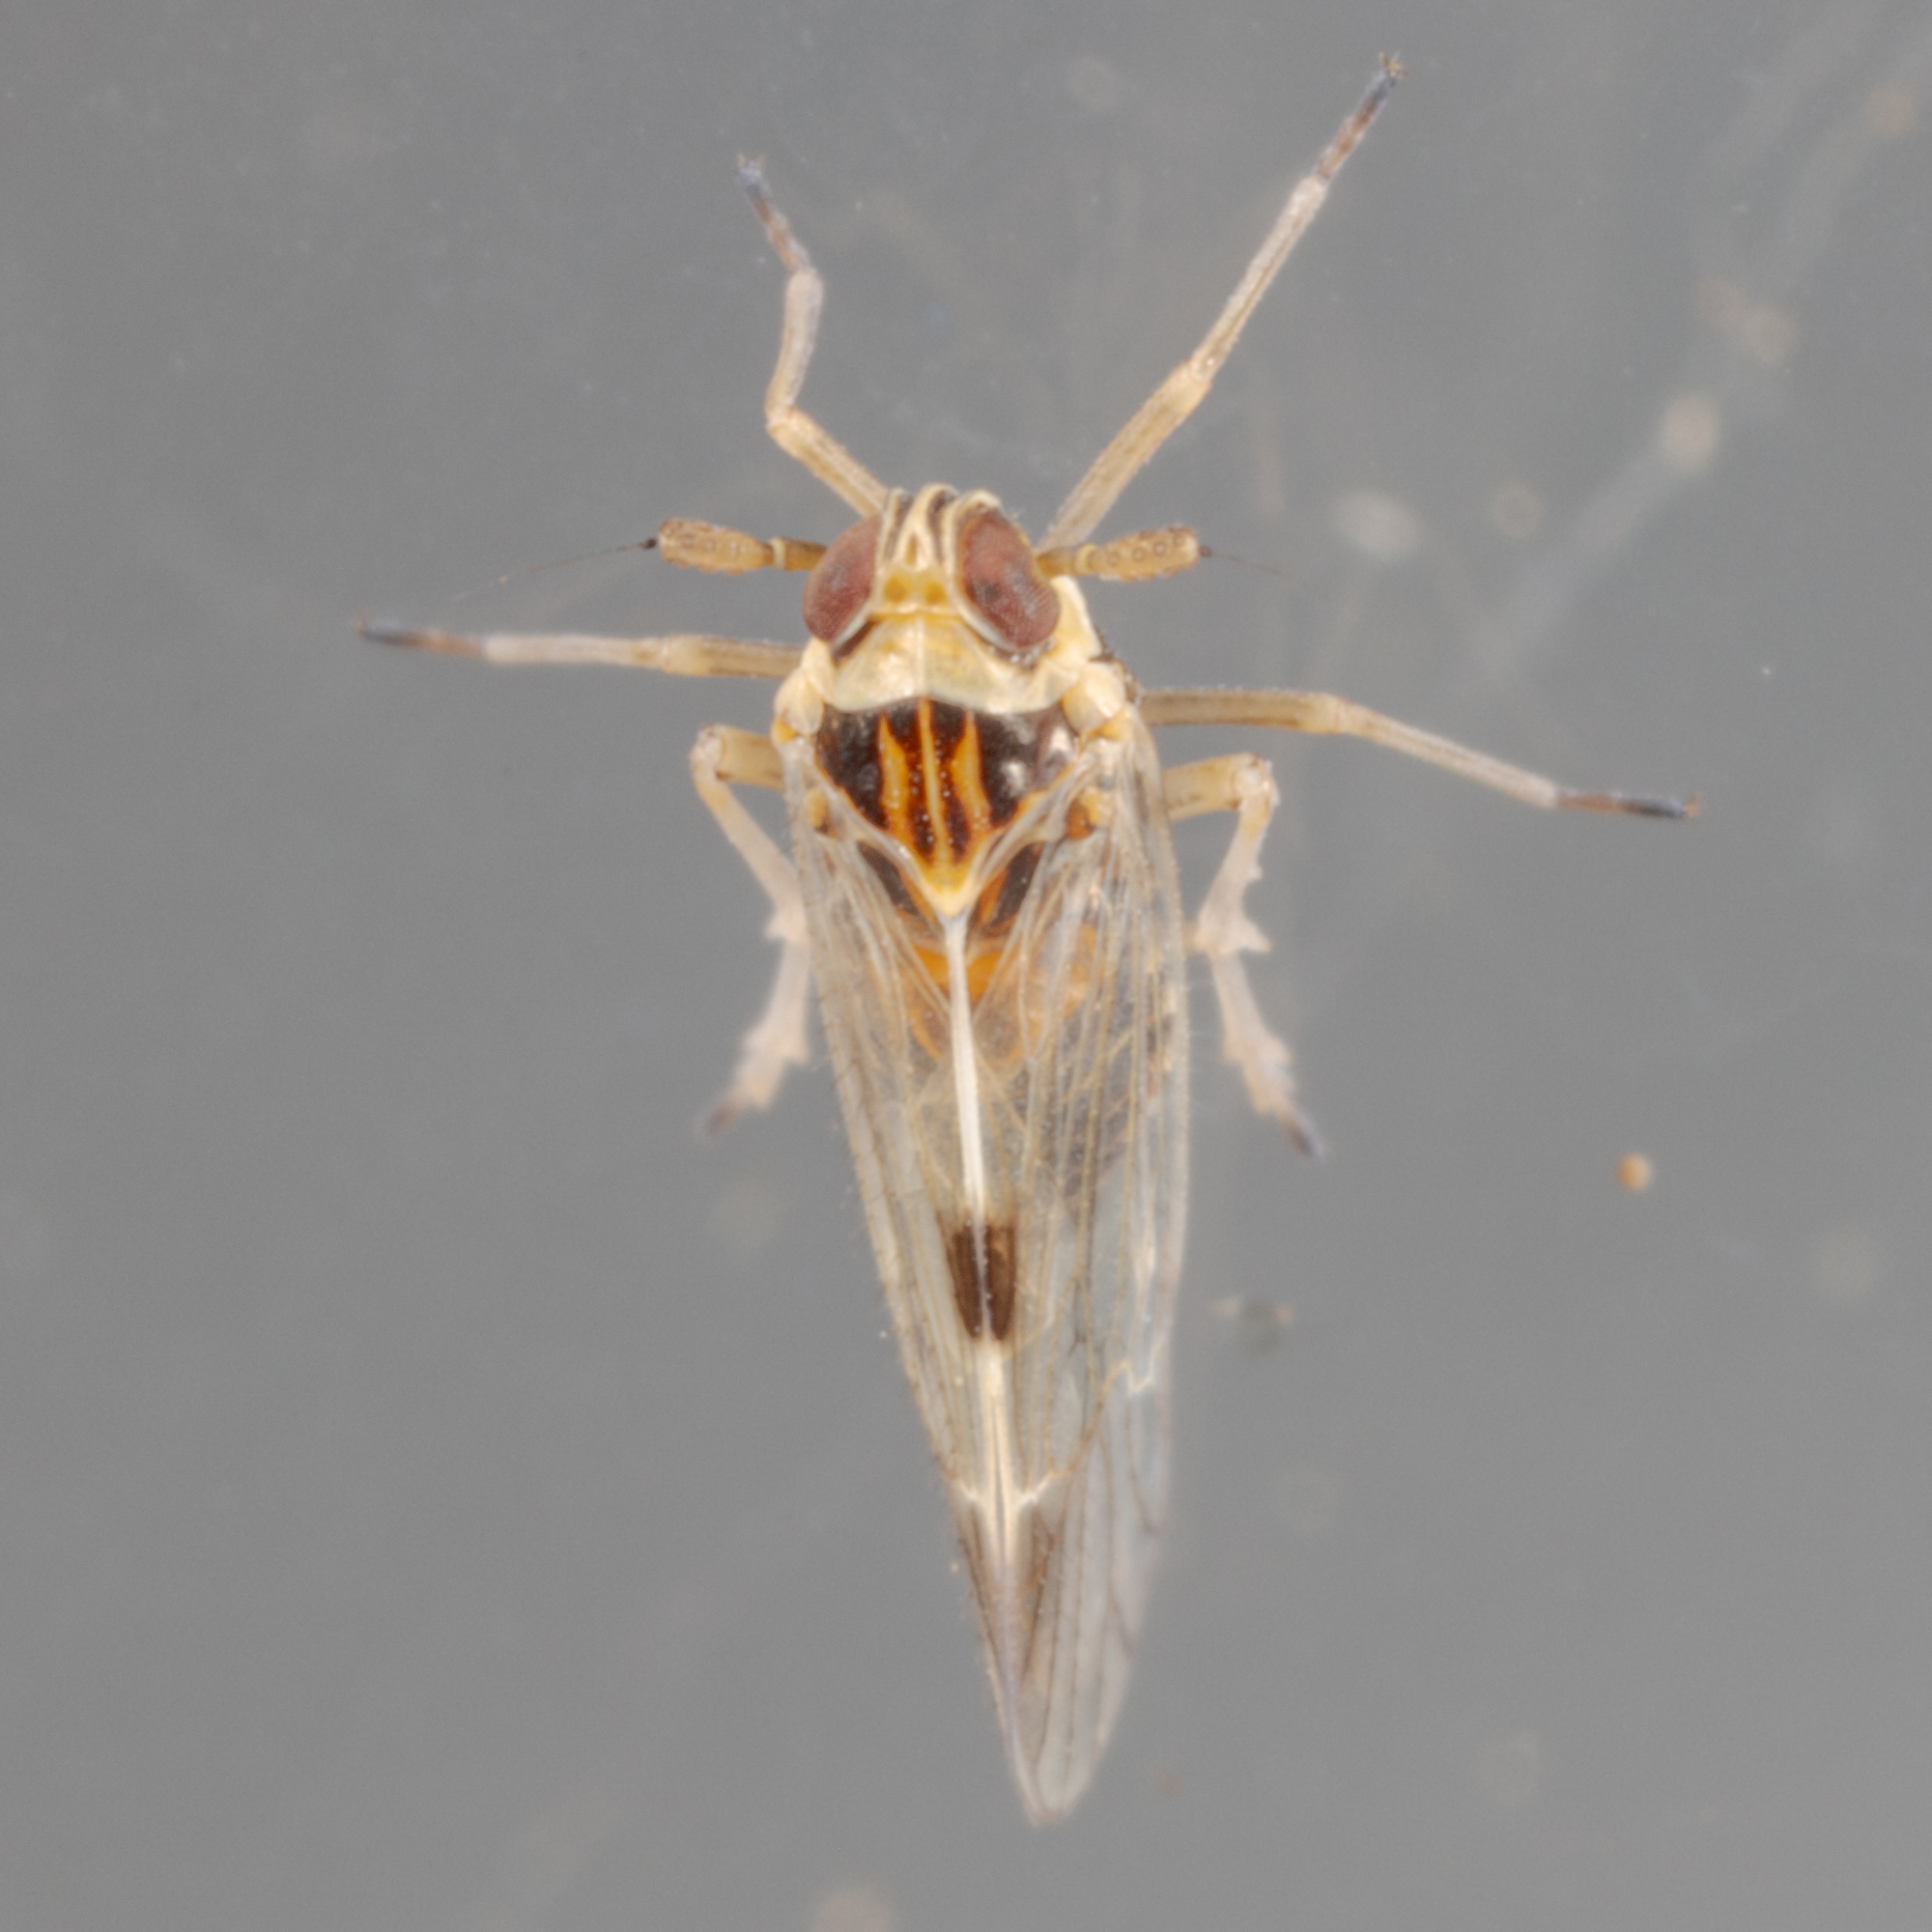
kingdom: Animalia
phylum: Arthropoda
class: Insecta
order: Hemiptera
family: Delphacidae
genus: Chionomus
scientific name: Chionomus
